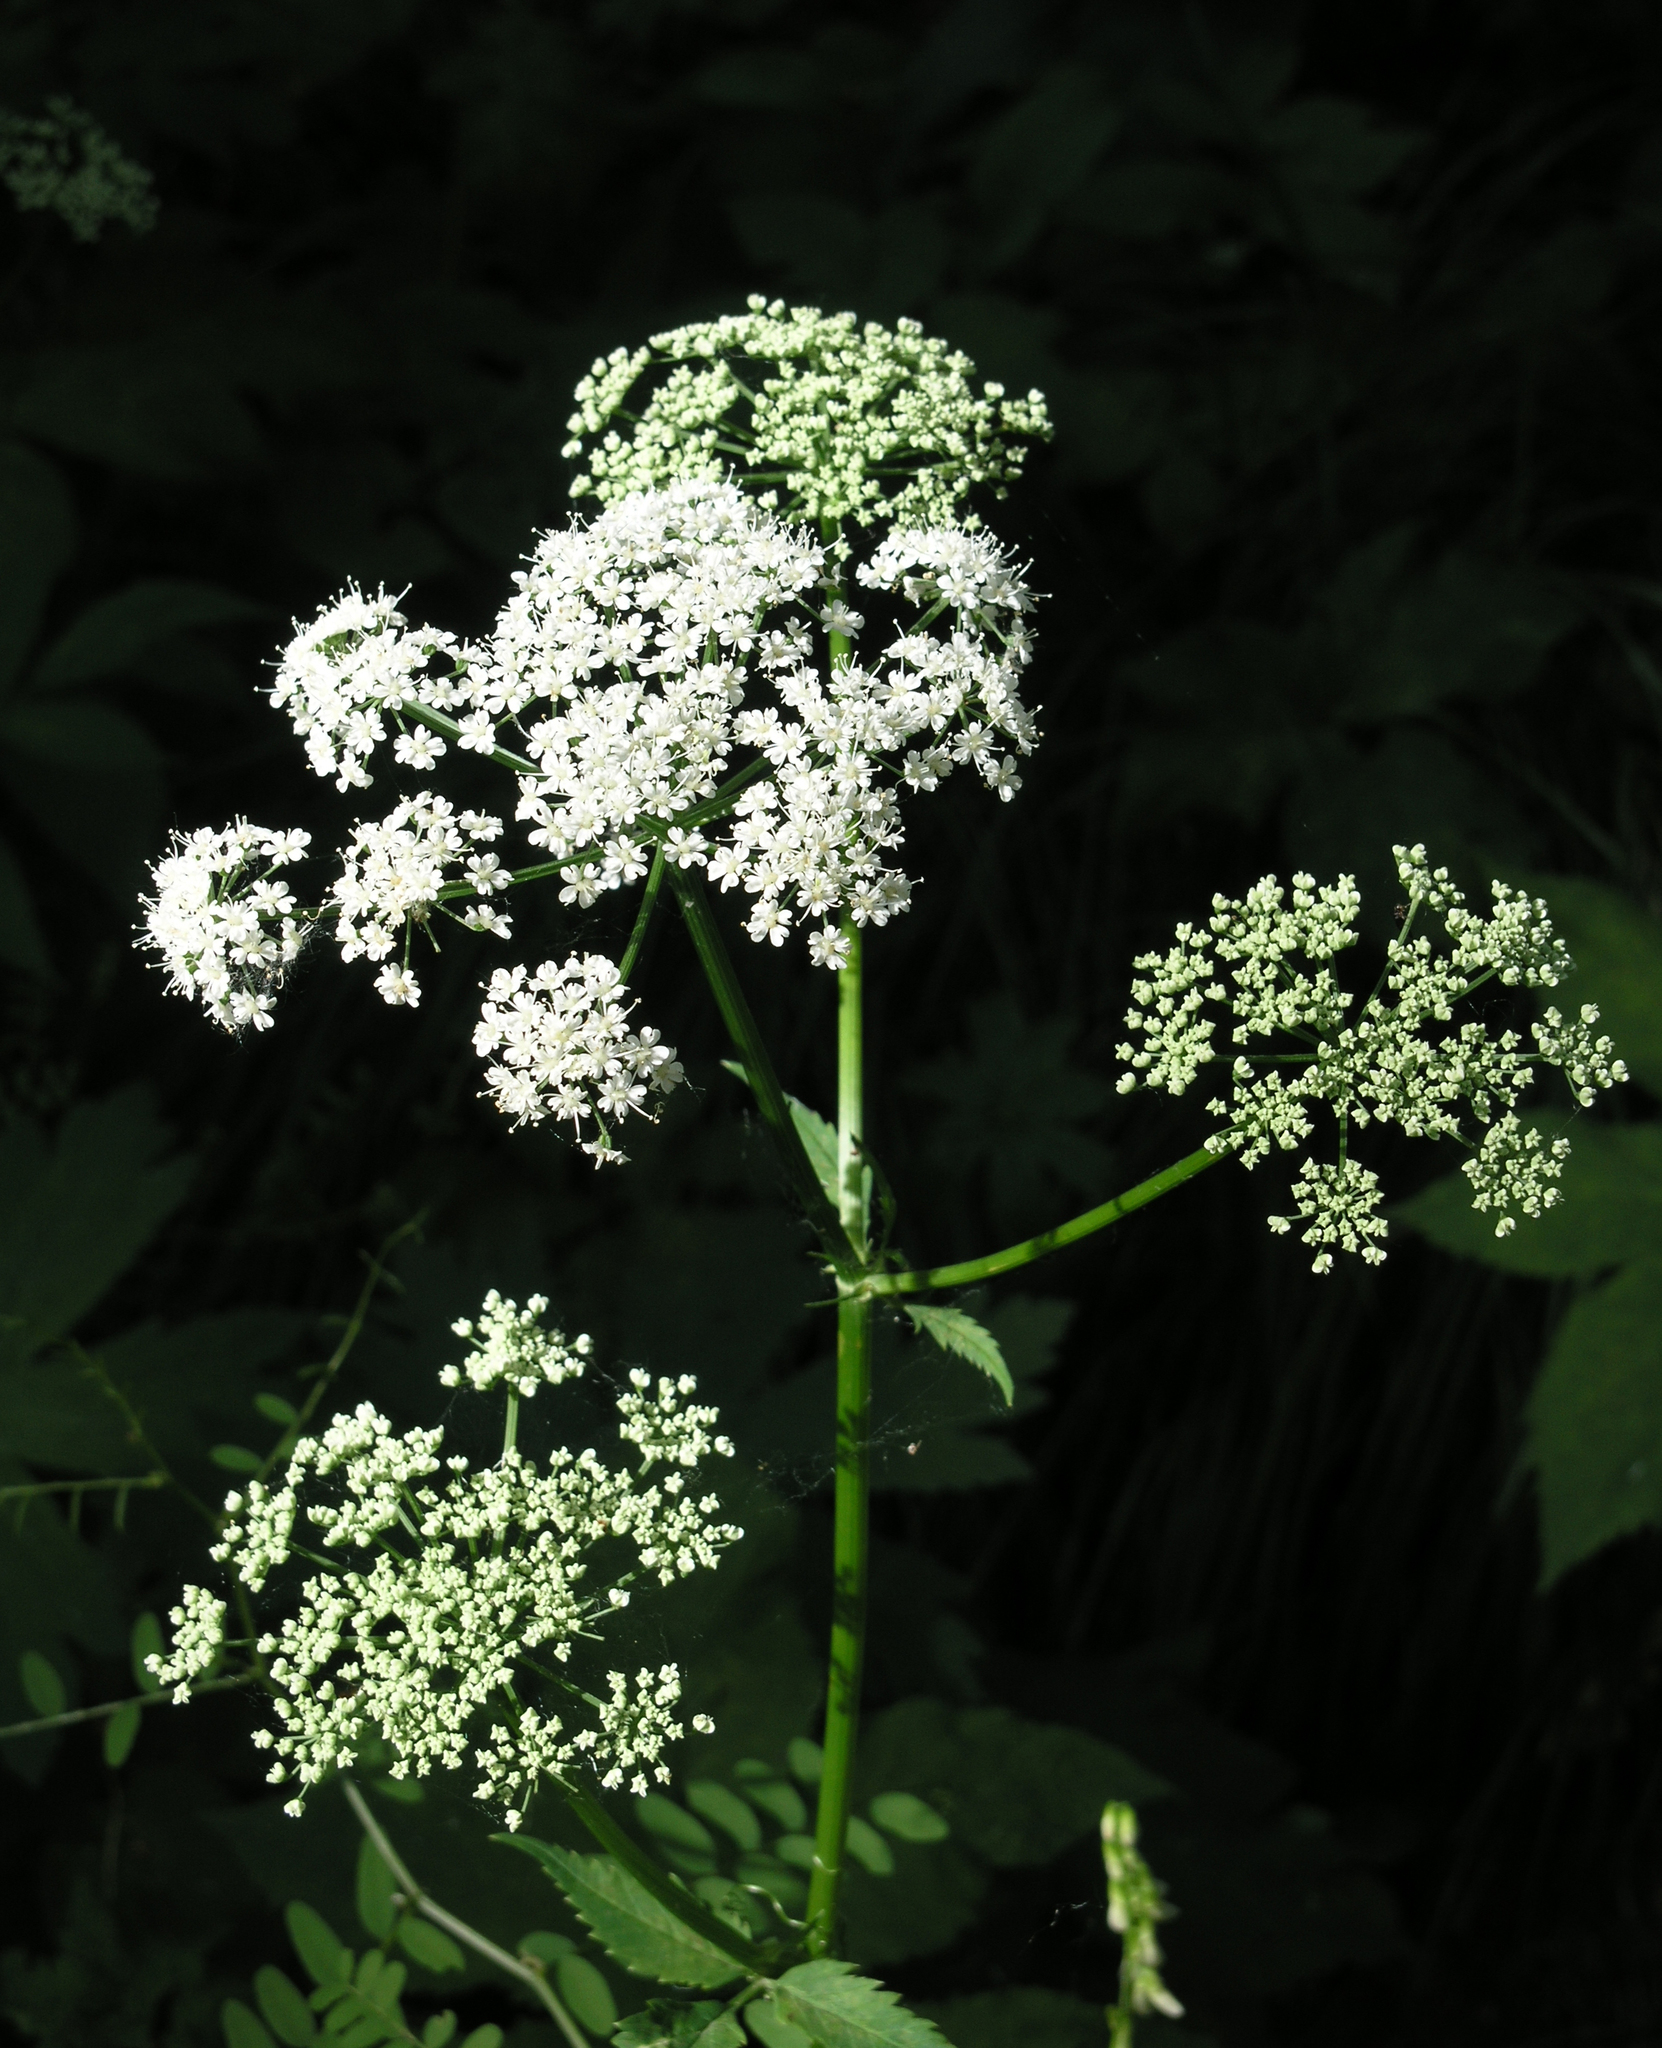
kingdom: Plantae
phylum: Tracheophyta
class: Magnoliopsida
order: Apiales
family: Apiaceae
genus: Aegopodium
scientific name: Aegopodium podagraria
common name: Ground-elder
